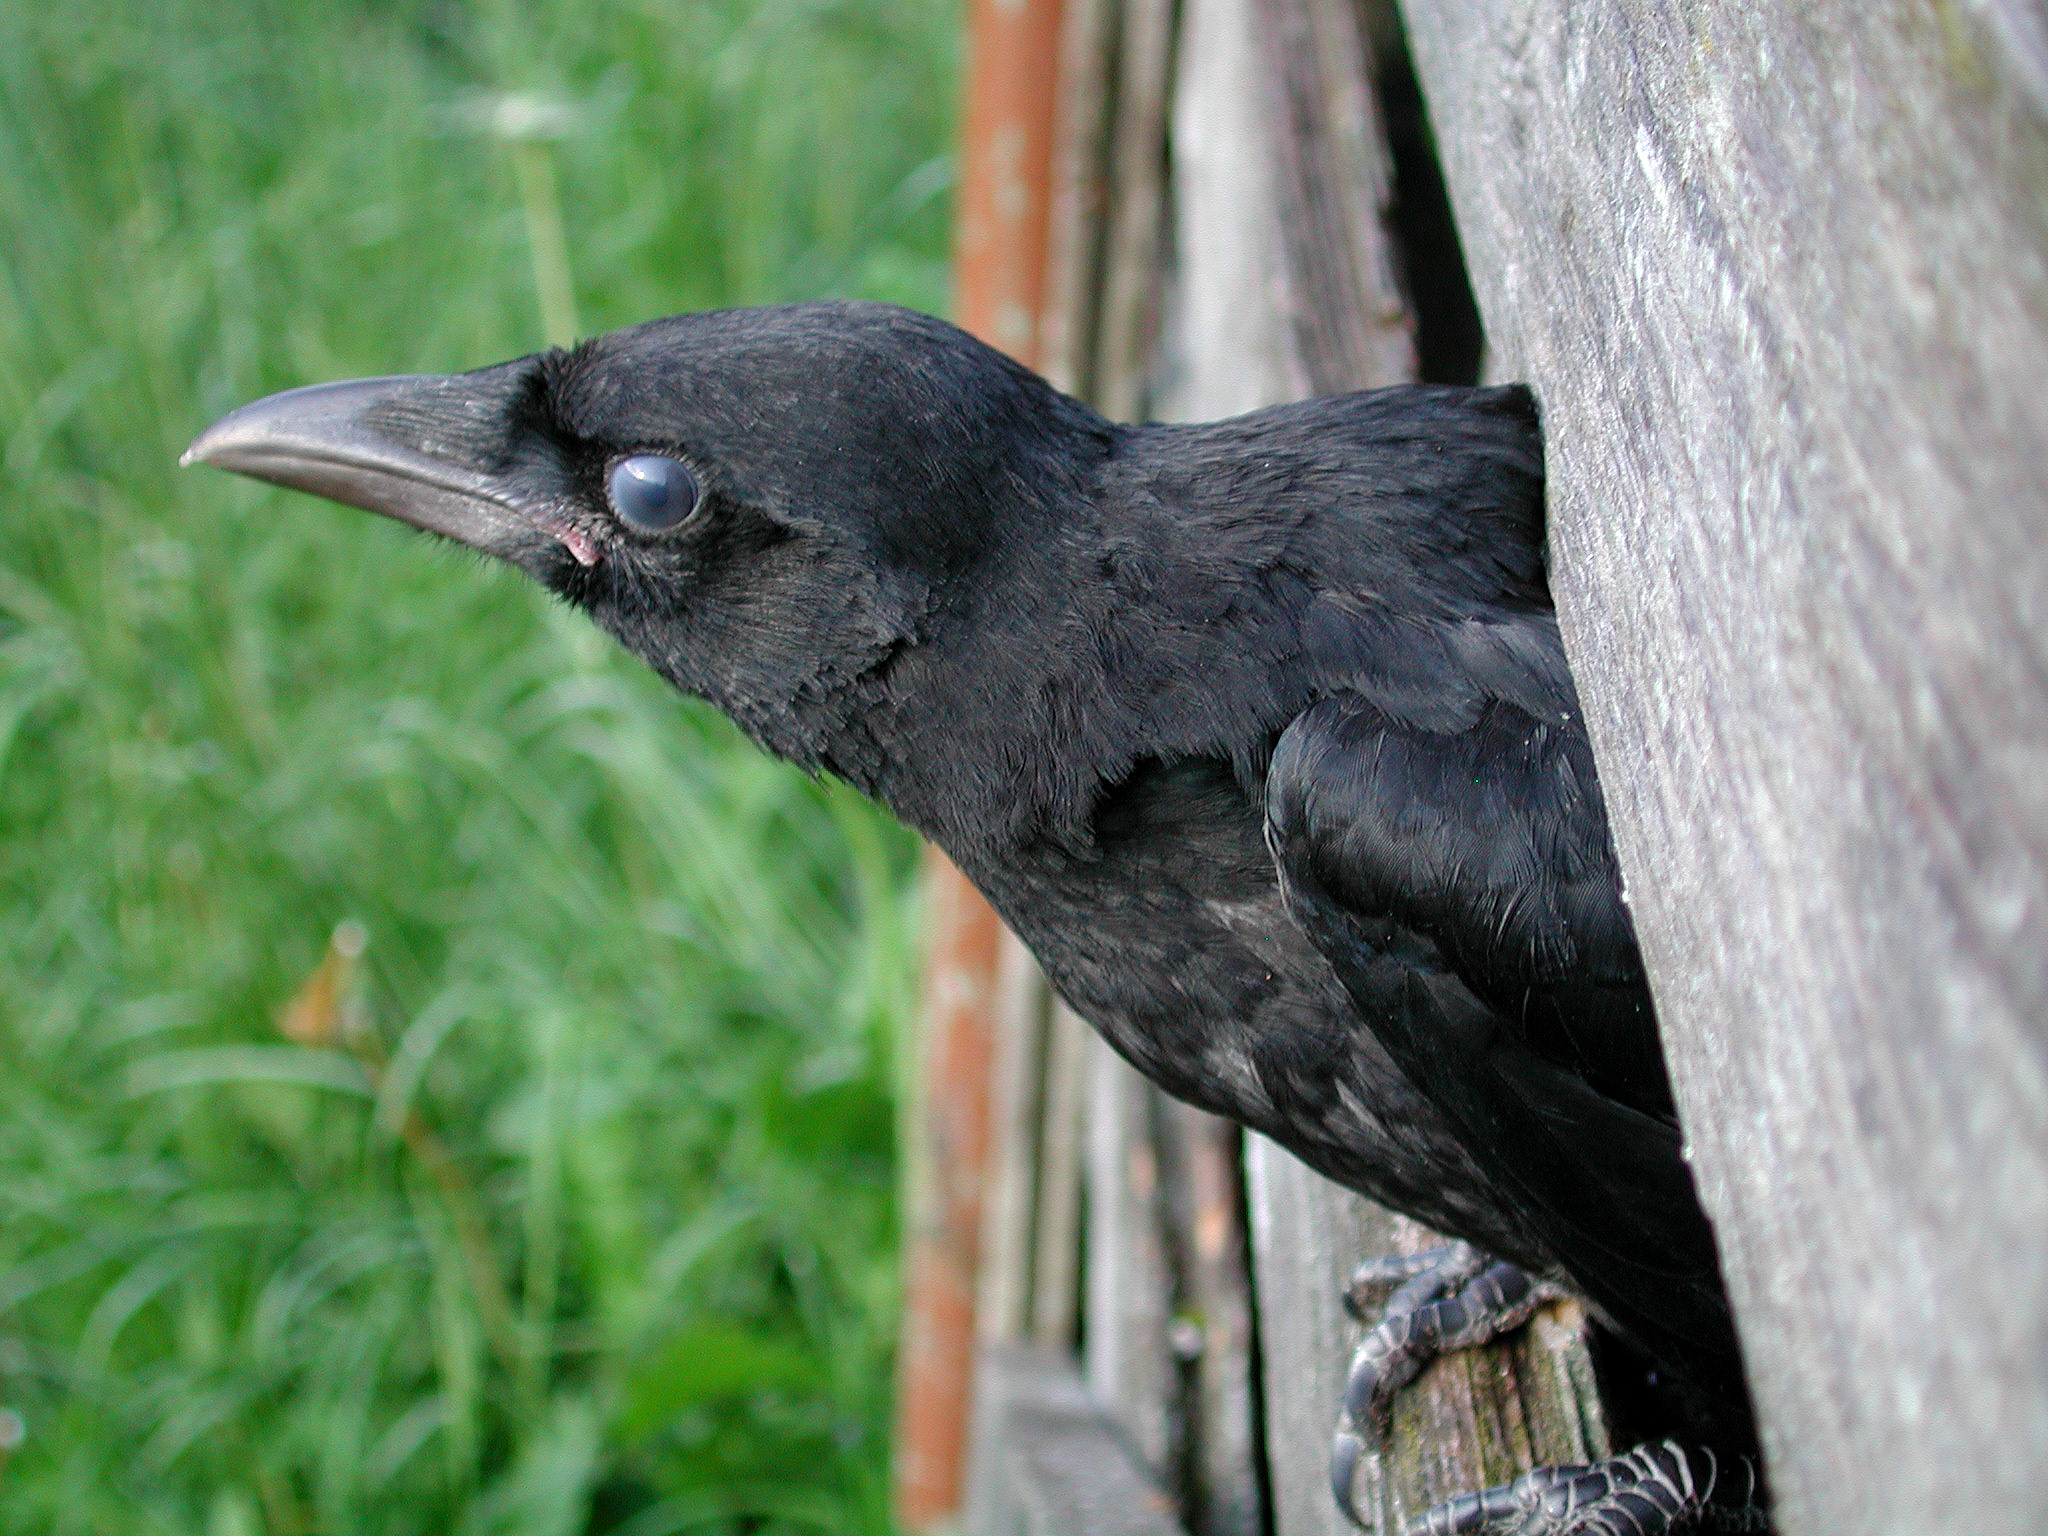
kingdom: Animalia
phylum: Chordata
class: Aves
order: Passeriformes
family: Corvidae
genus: Corvus
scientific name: Corvus corone
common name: Carrion crow
